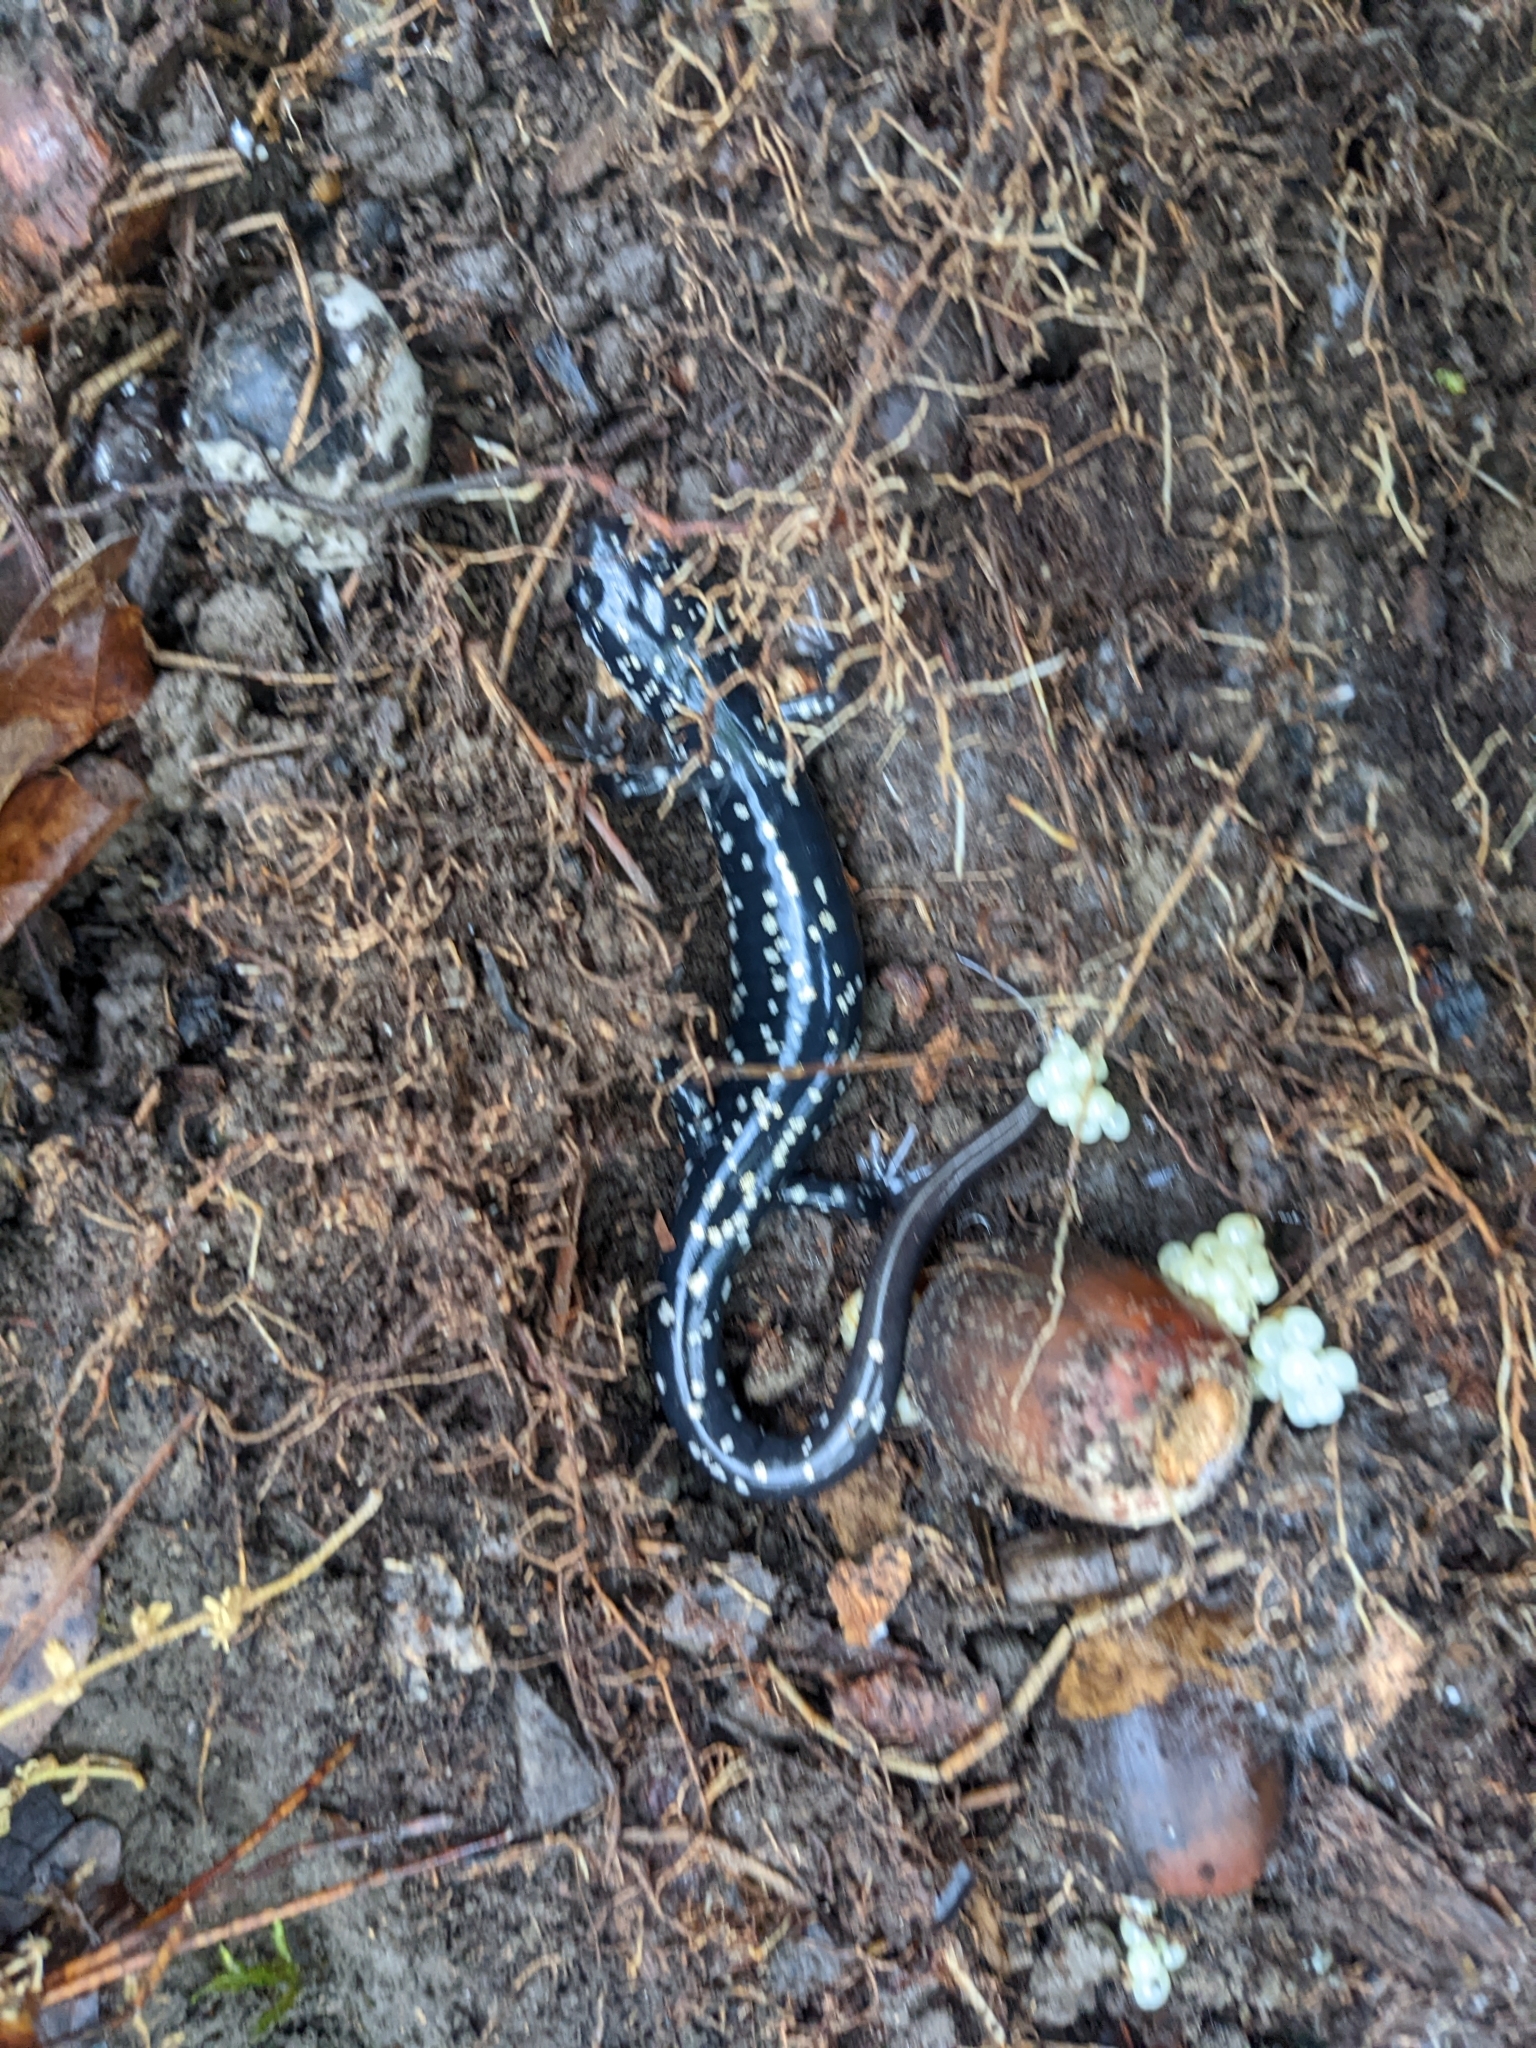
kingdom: Animalia
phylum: Chordata
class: Amphibia
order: Caudata
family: Plethodontidae
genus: Plethodon
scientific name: Plethodon glutinosus
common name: Northern slimy salamander
